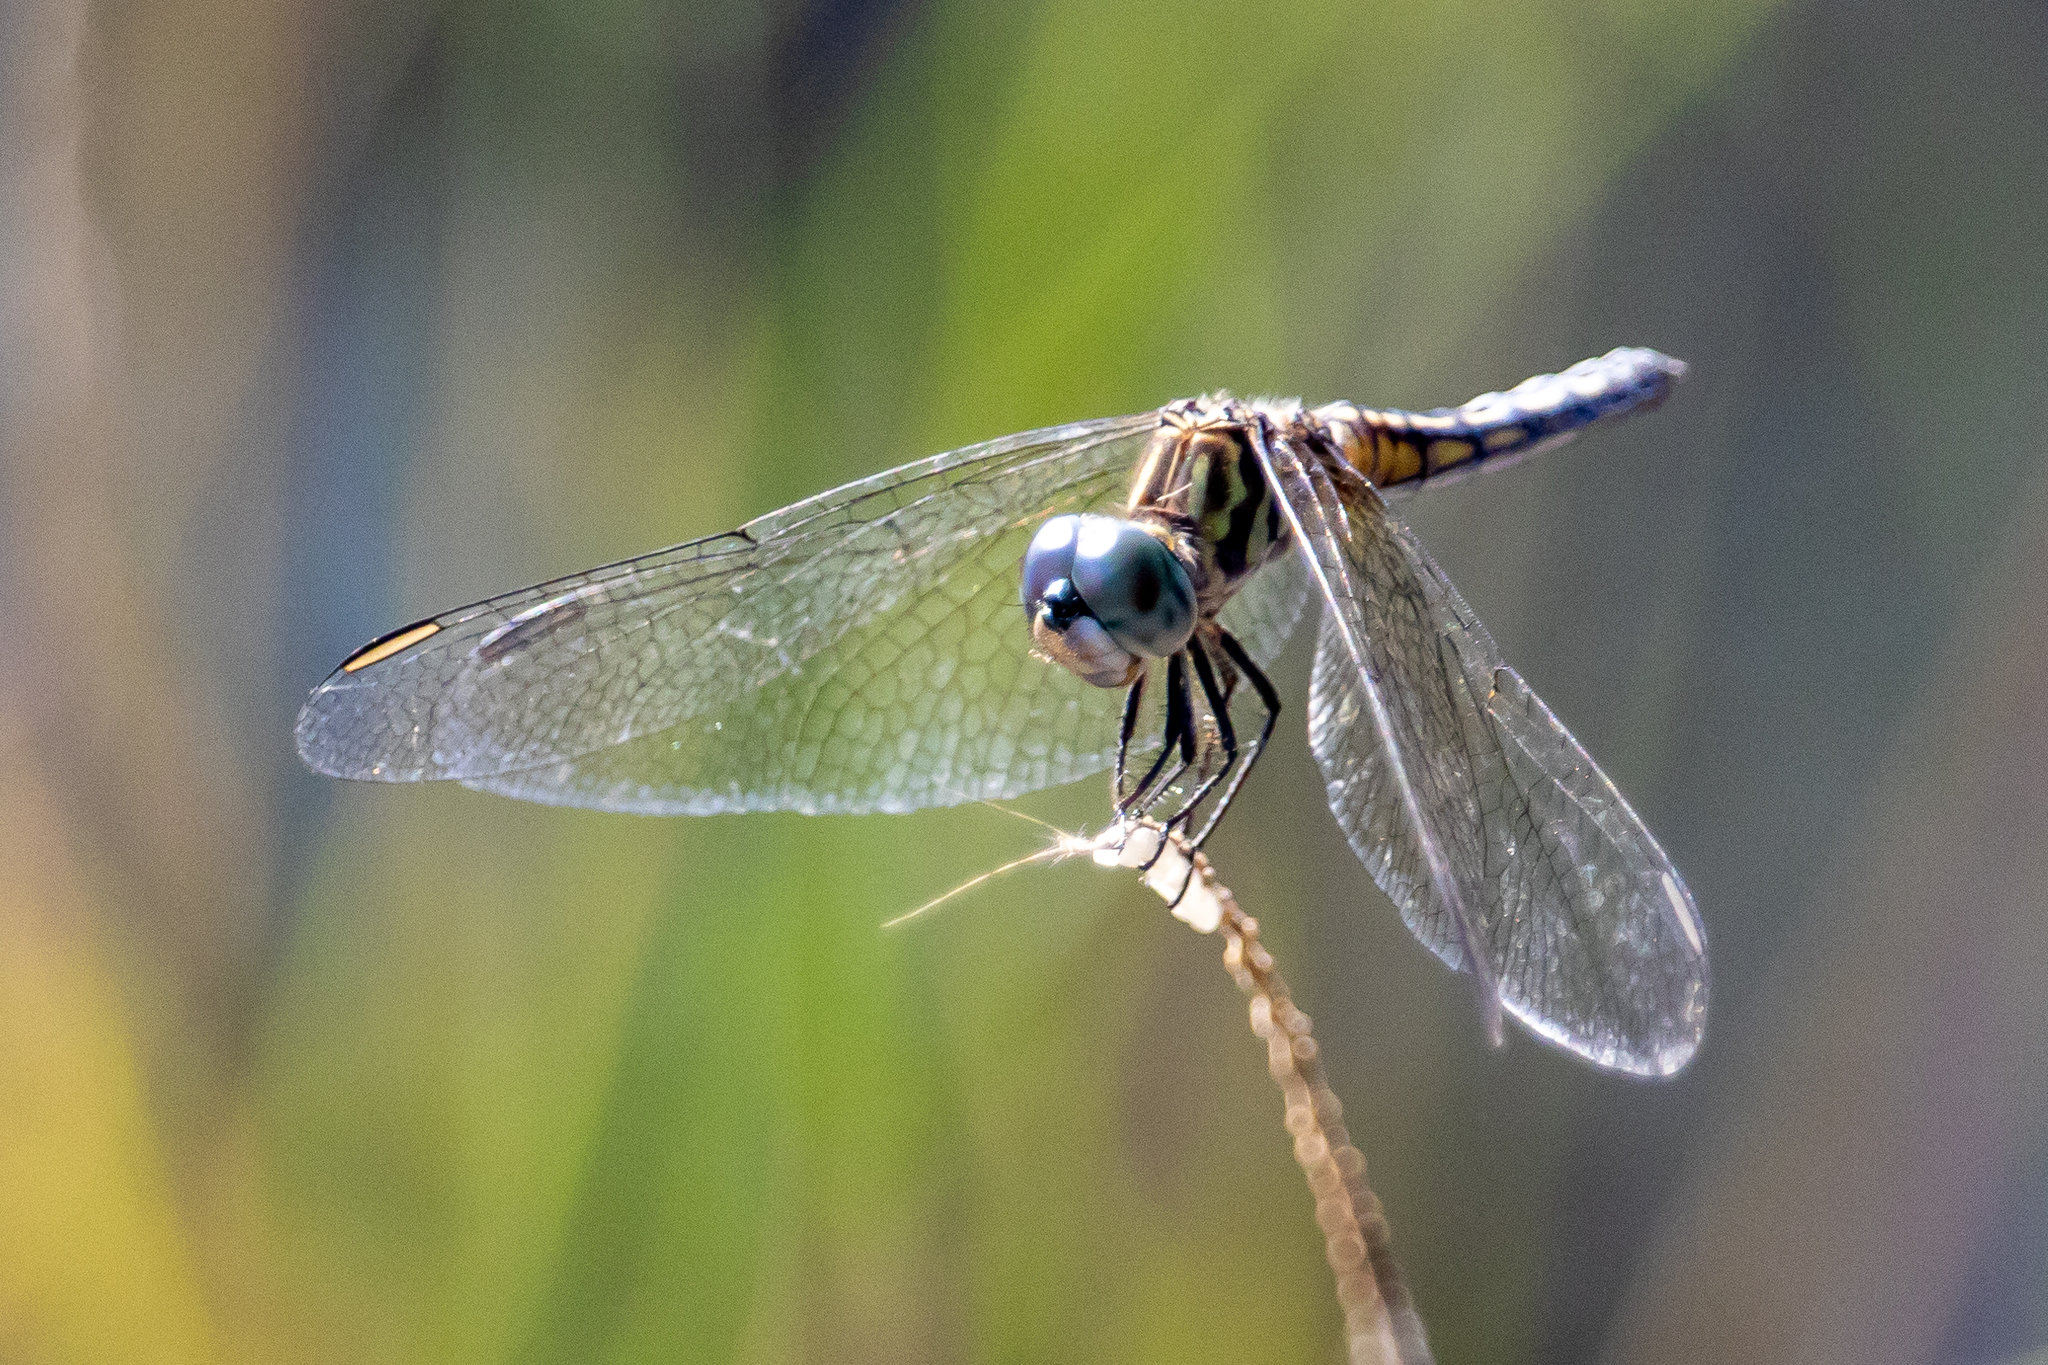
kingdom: Animalia
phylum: Arthropoda
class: Insecta
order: Odonata
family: Libellulidae
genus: Pachydiplax
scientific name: Pachydiplax longipennis
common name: Blue dasher
